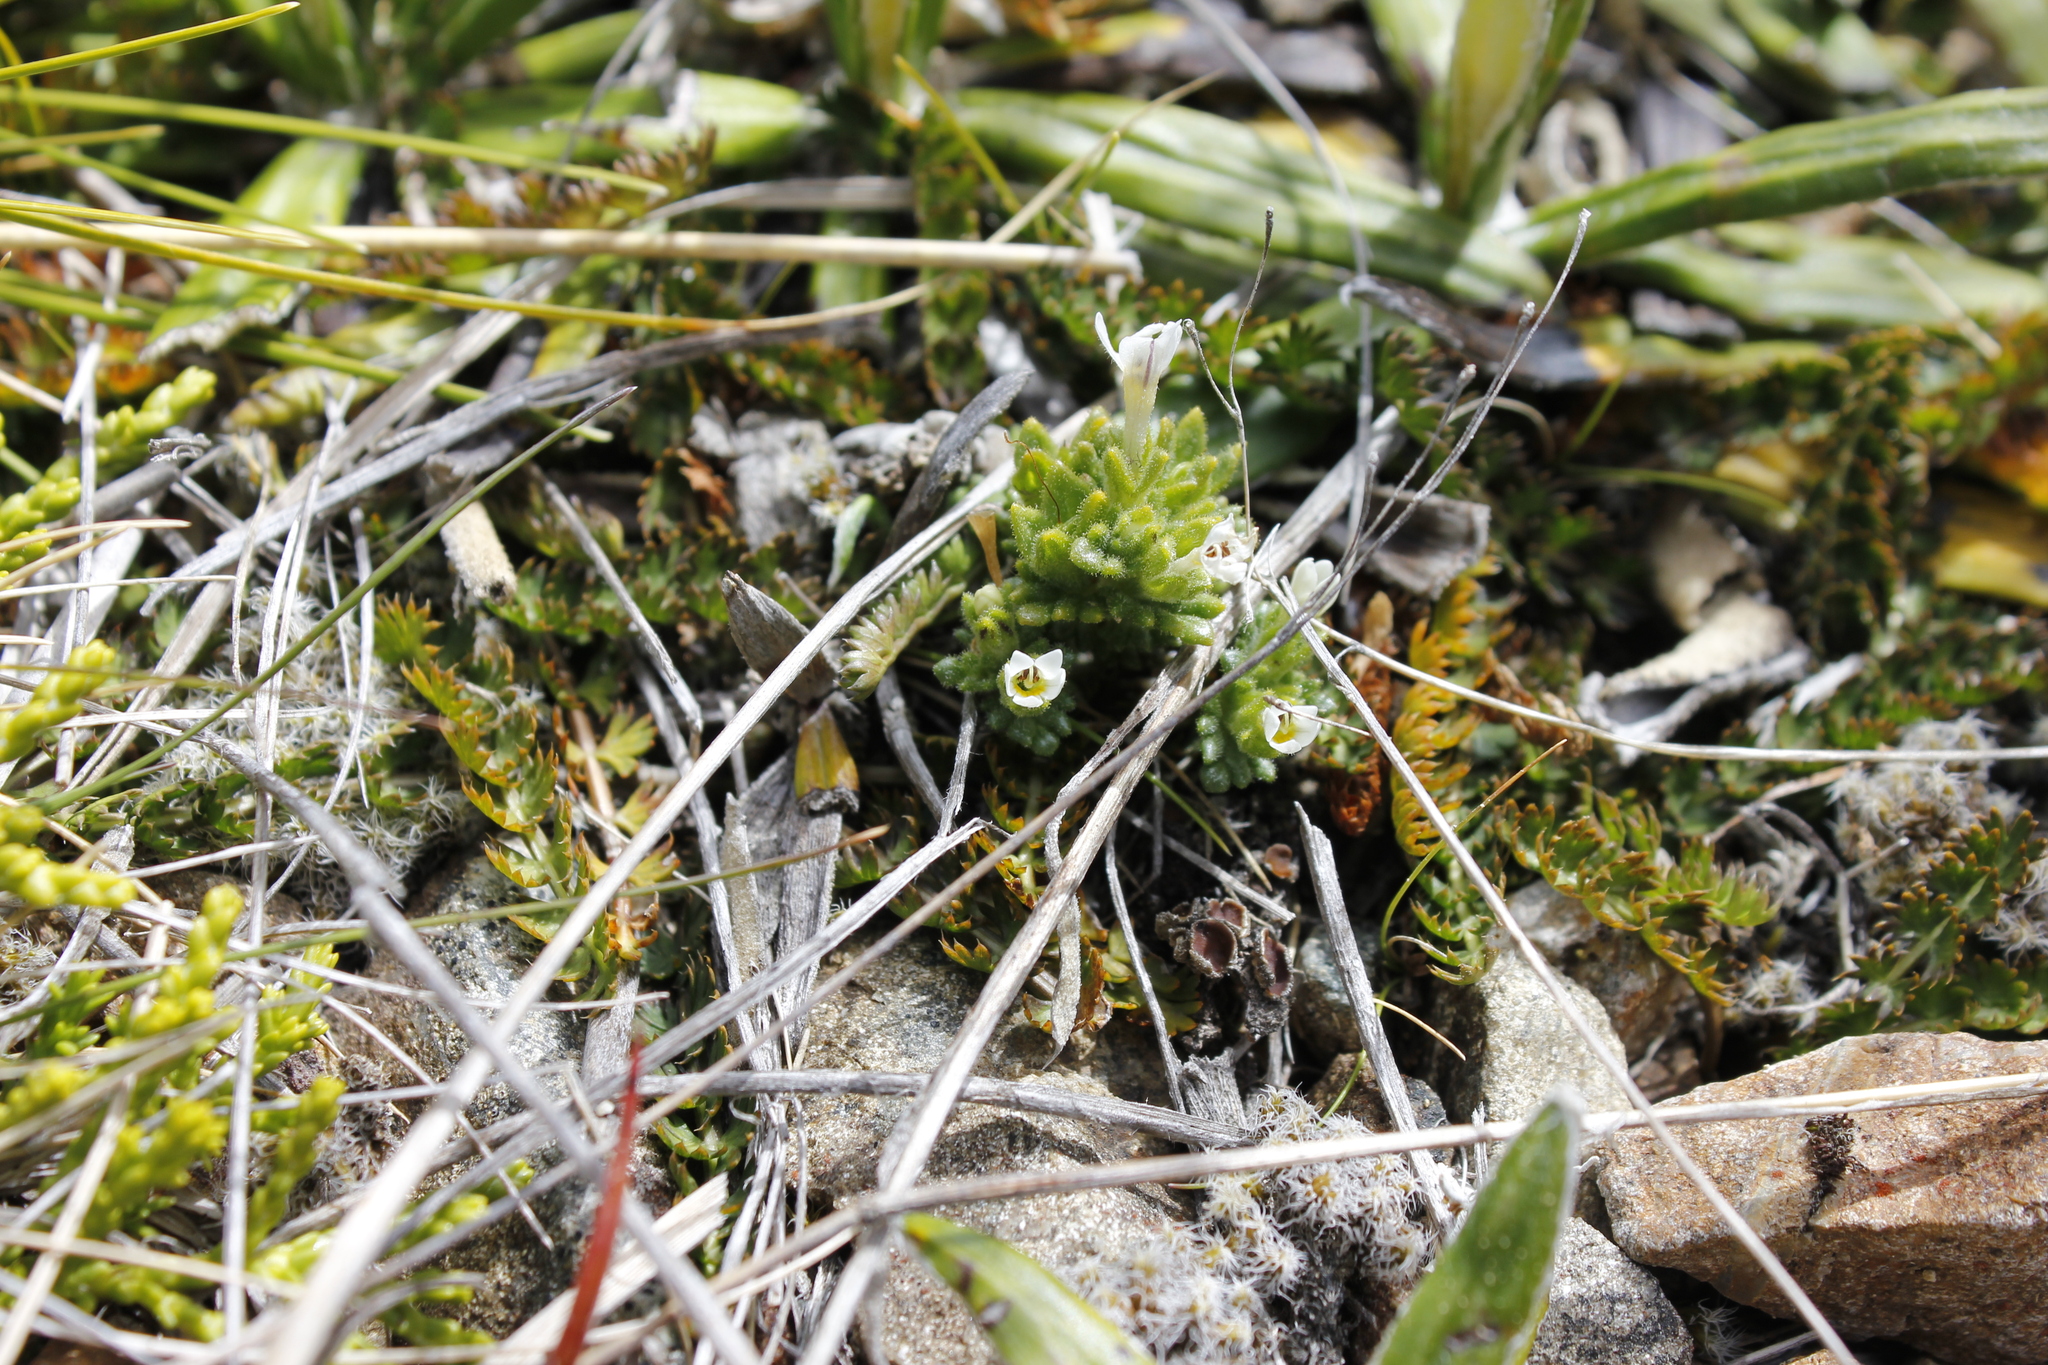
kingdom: Plantae
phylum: Tracheophyta
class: Magnoliopsida
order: Lamiales
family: Orobanchaceae
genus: Euphrasia
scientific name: Euphrasia zelandica
